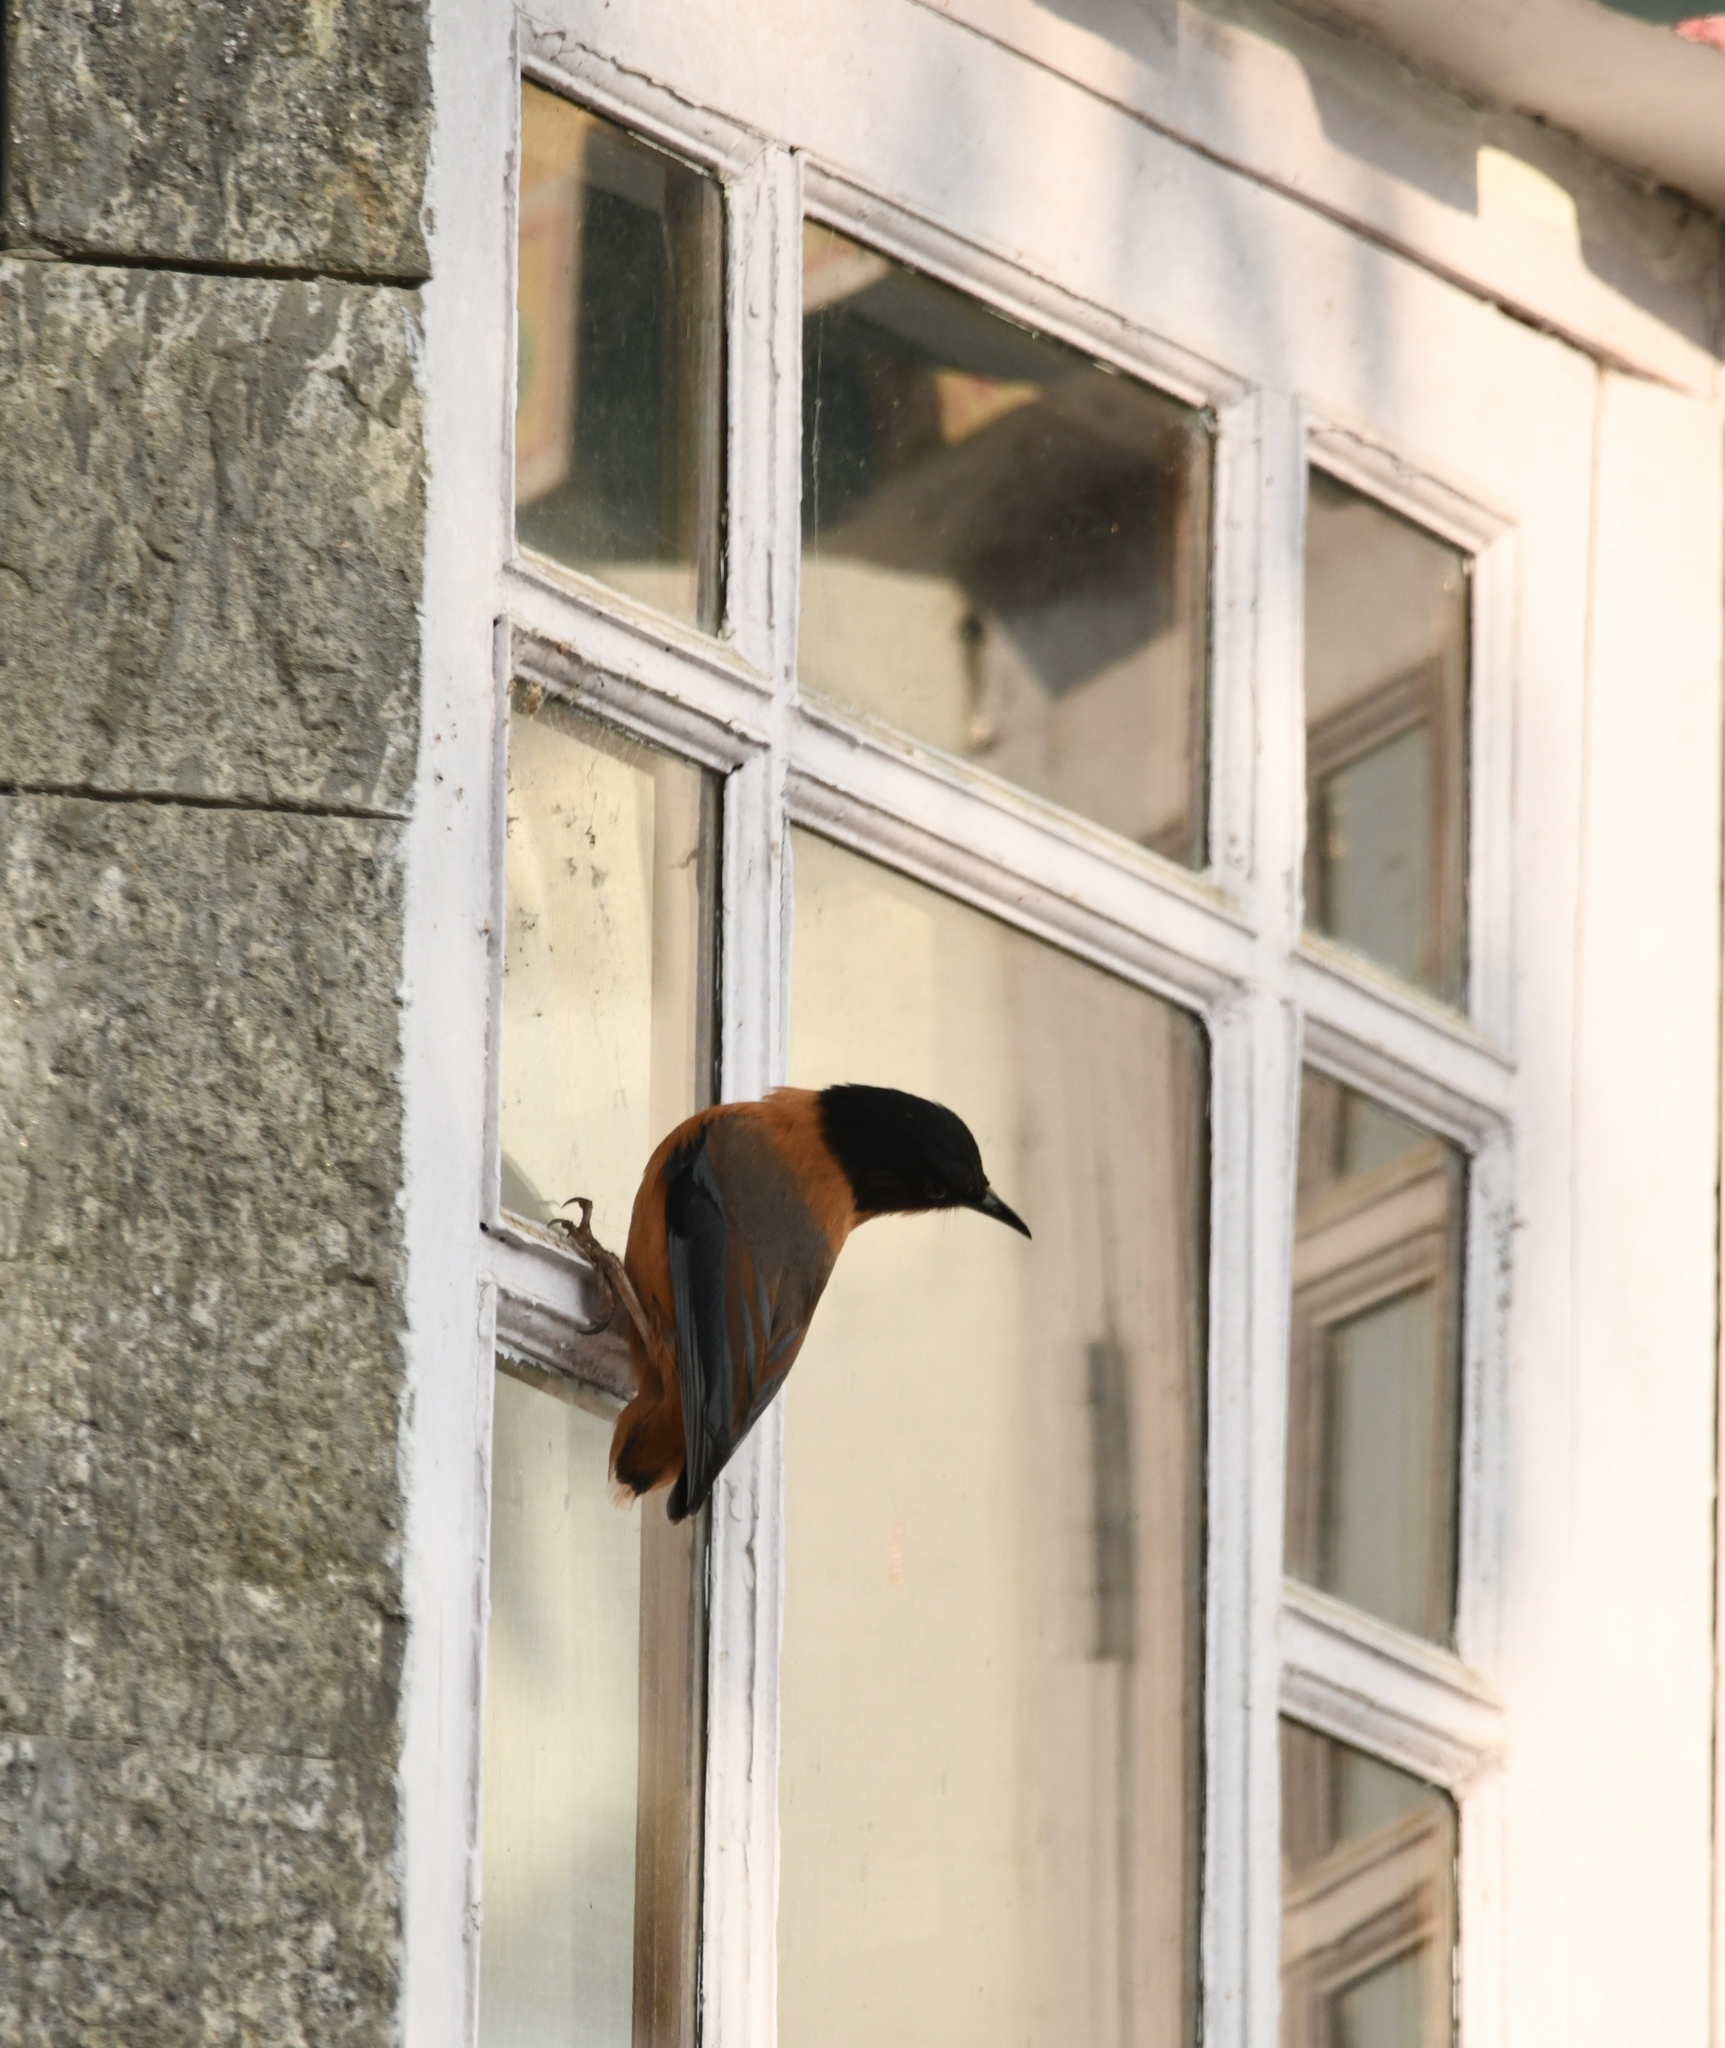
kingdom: Animalia
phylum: Chordata
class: Aves
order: Passeriformes
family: Leiothrichidae
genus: Heterophasia
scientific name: Heterophasia capistrata
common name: Rufous sibia
